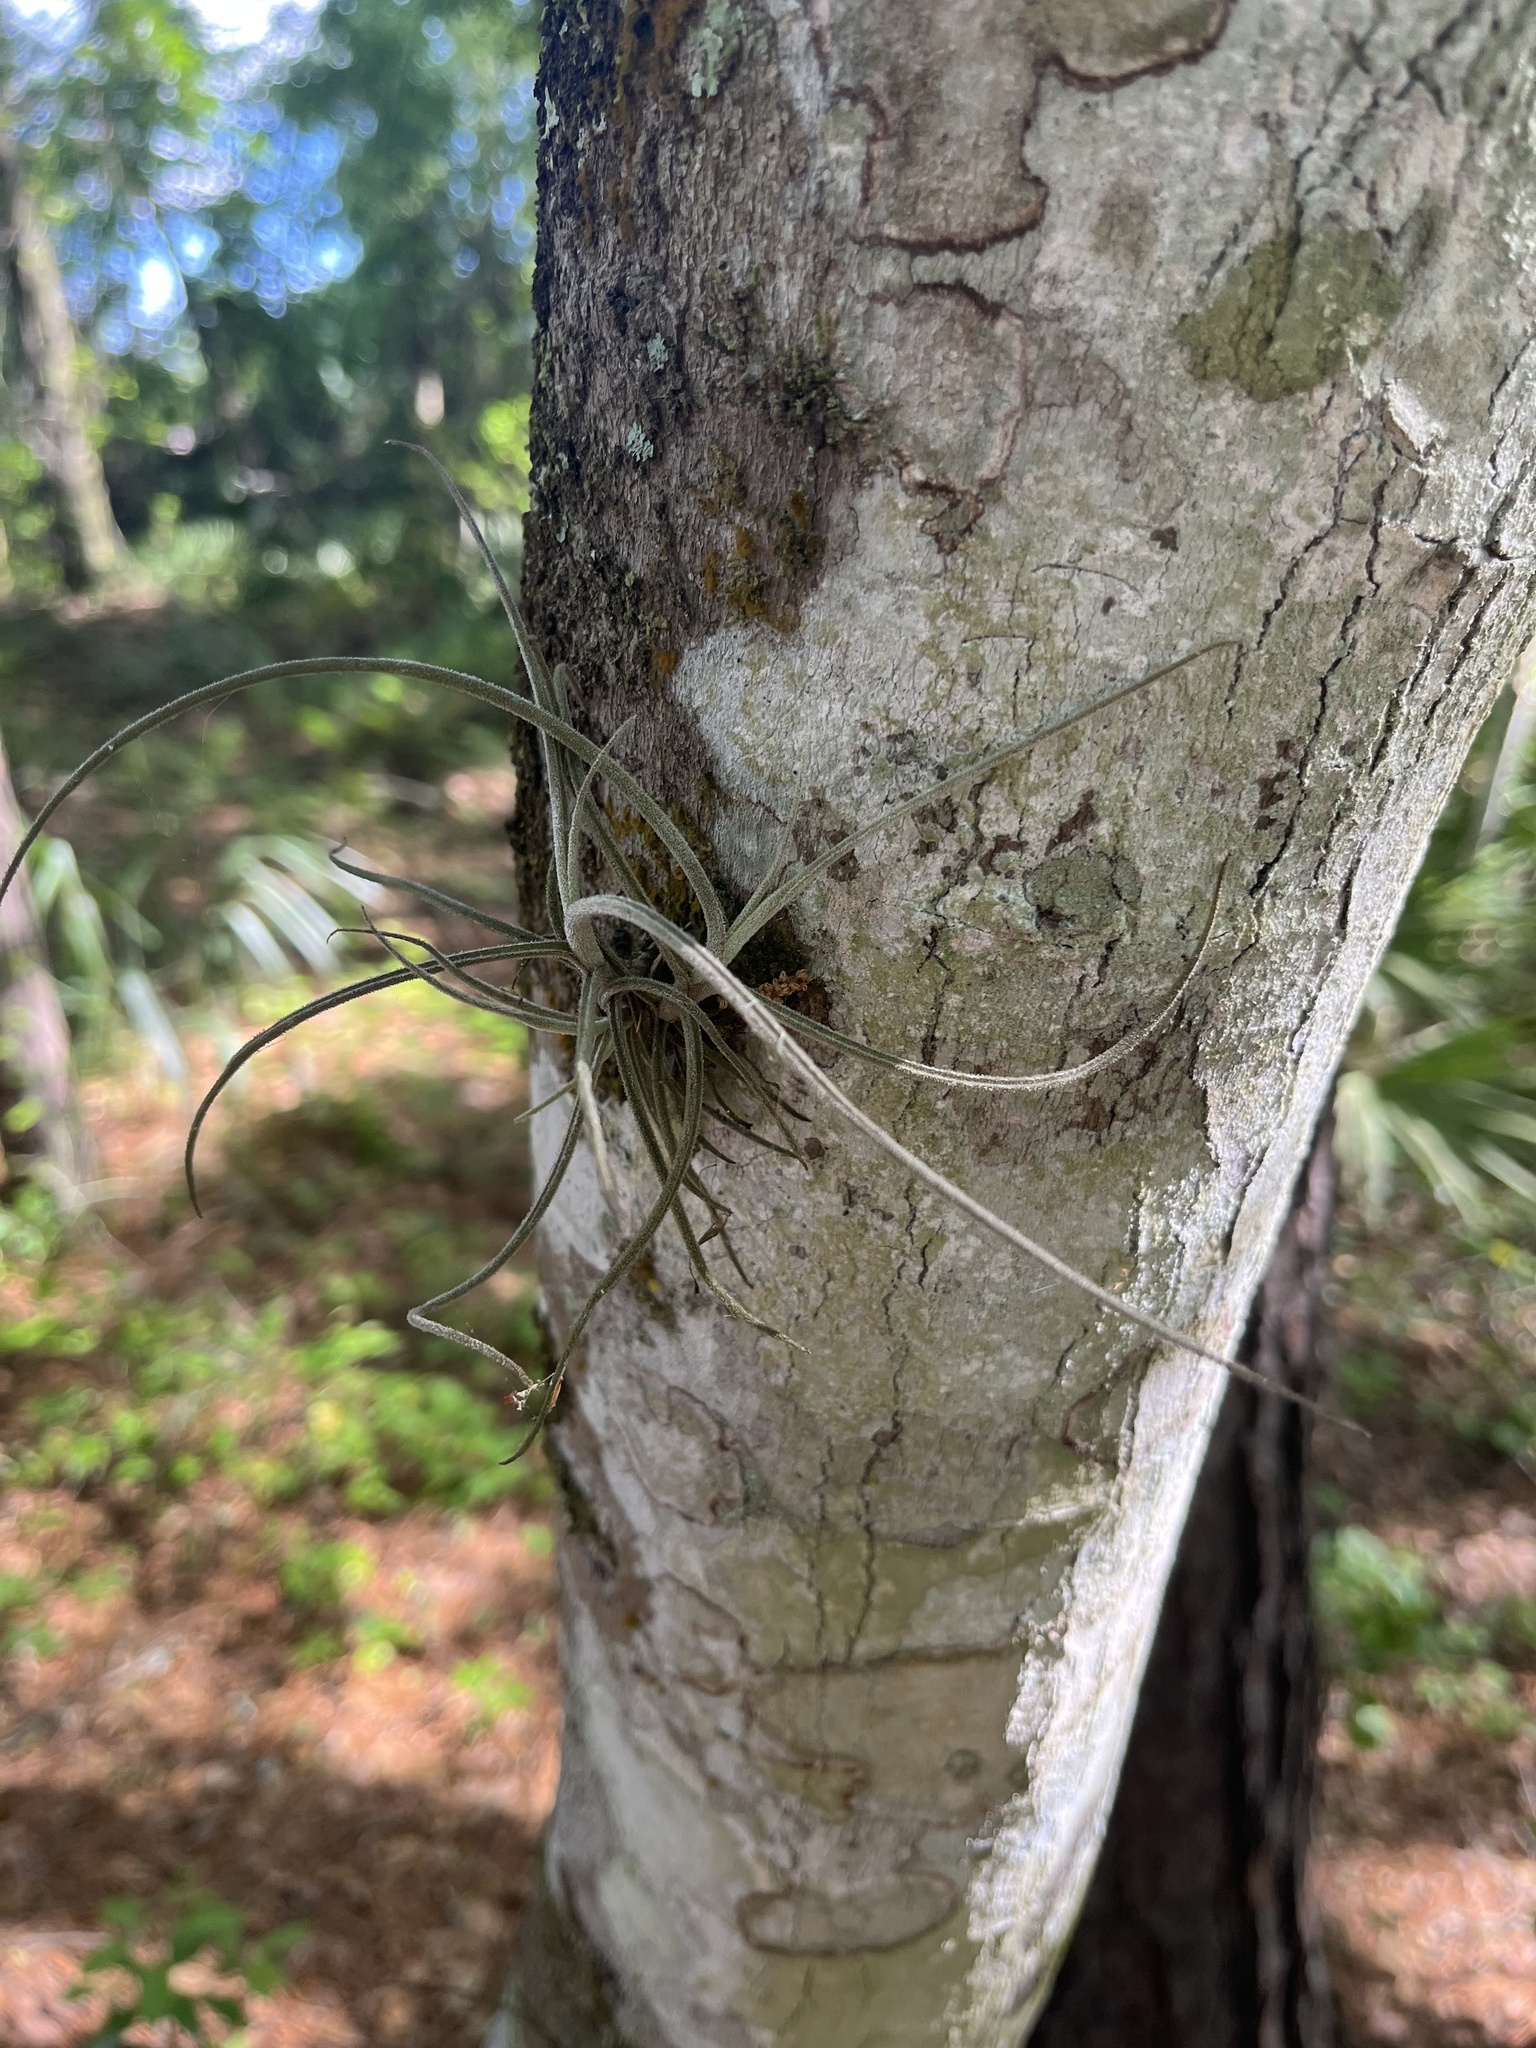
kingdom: Plantae
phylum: Tracheophyta
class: Liliopsida
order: Poales
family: Bromeliaceae
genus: Tillandsia
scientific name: Tillandsia recurvata
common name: Small ballmoss
